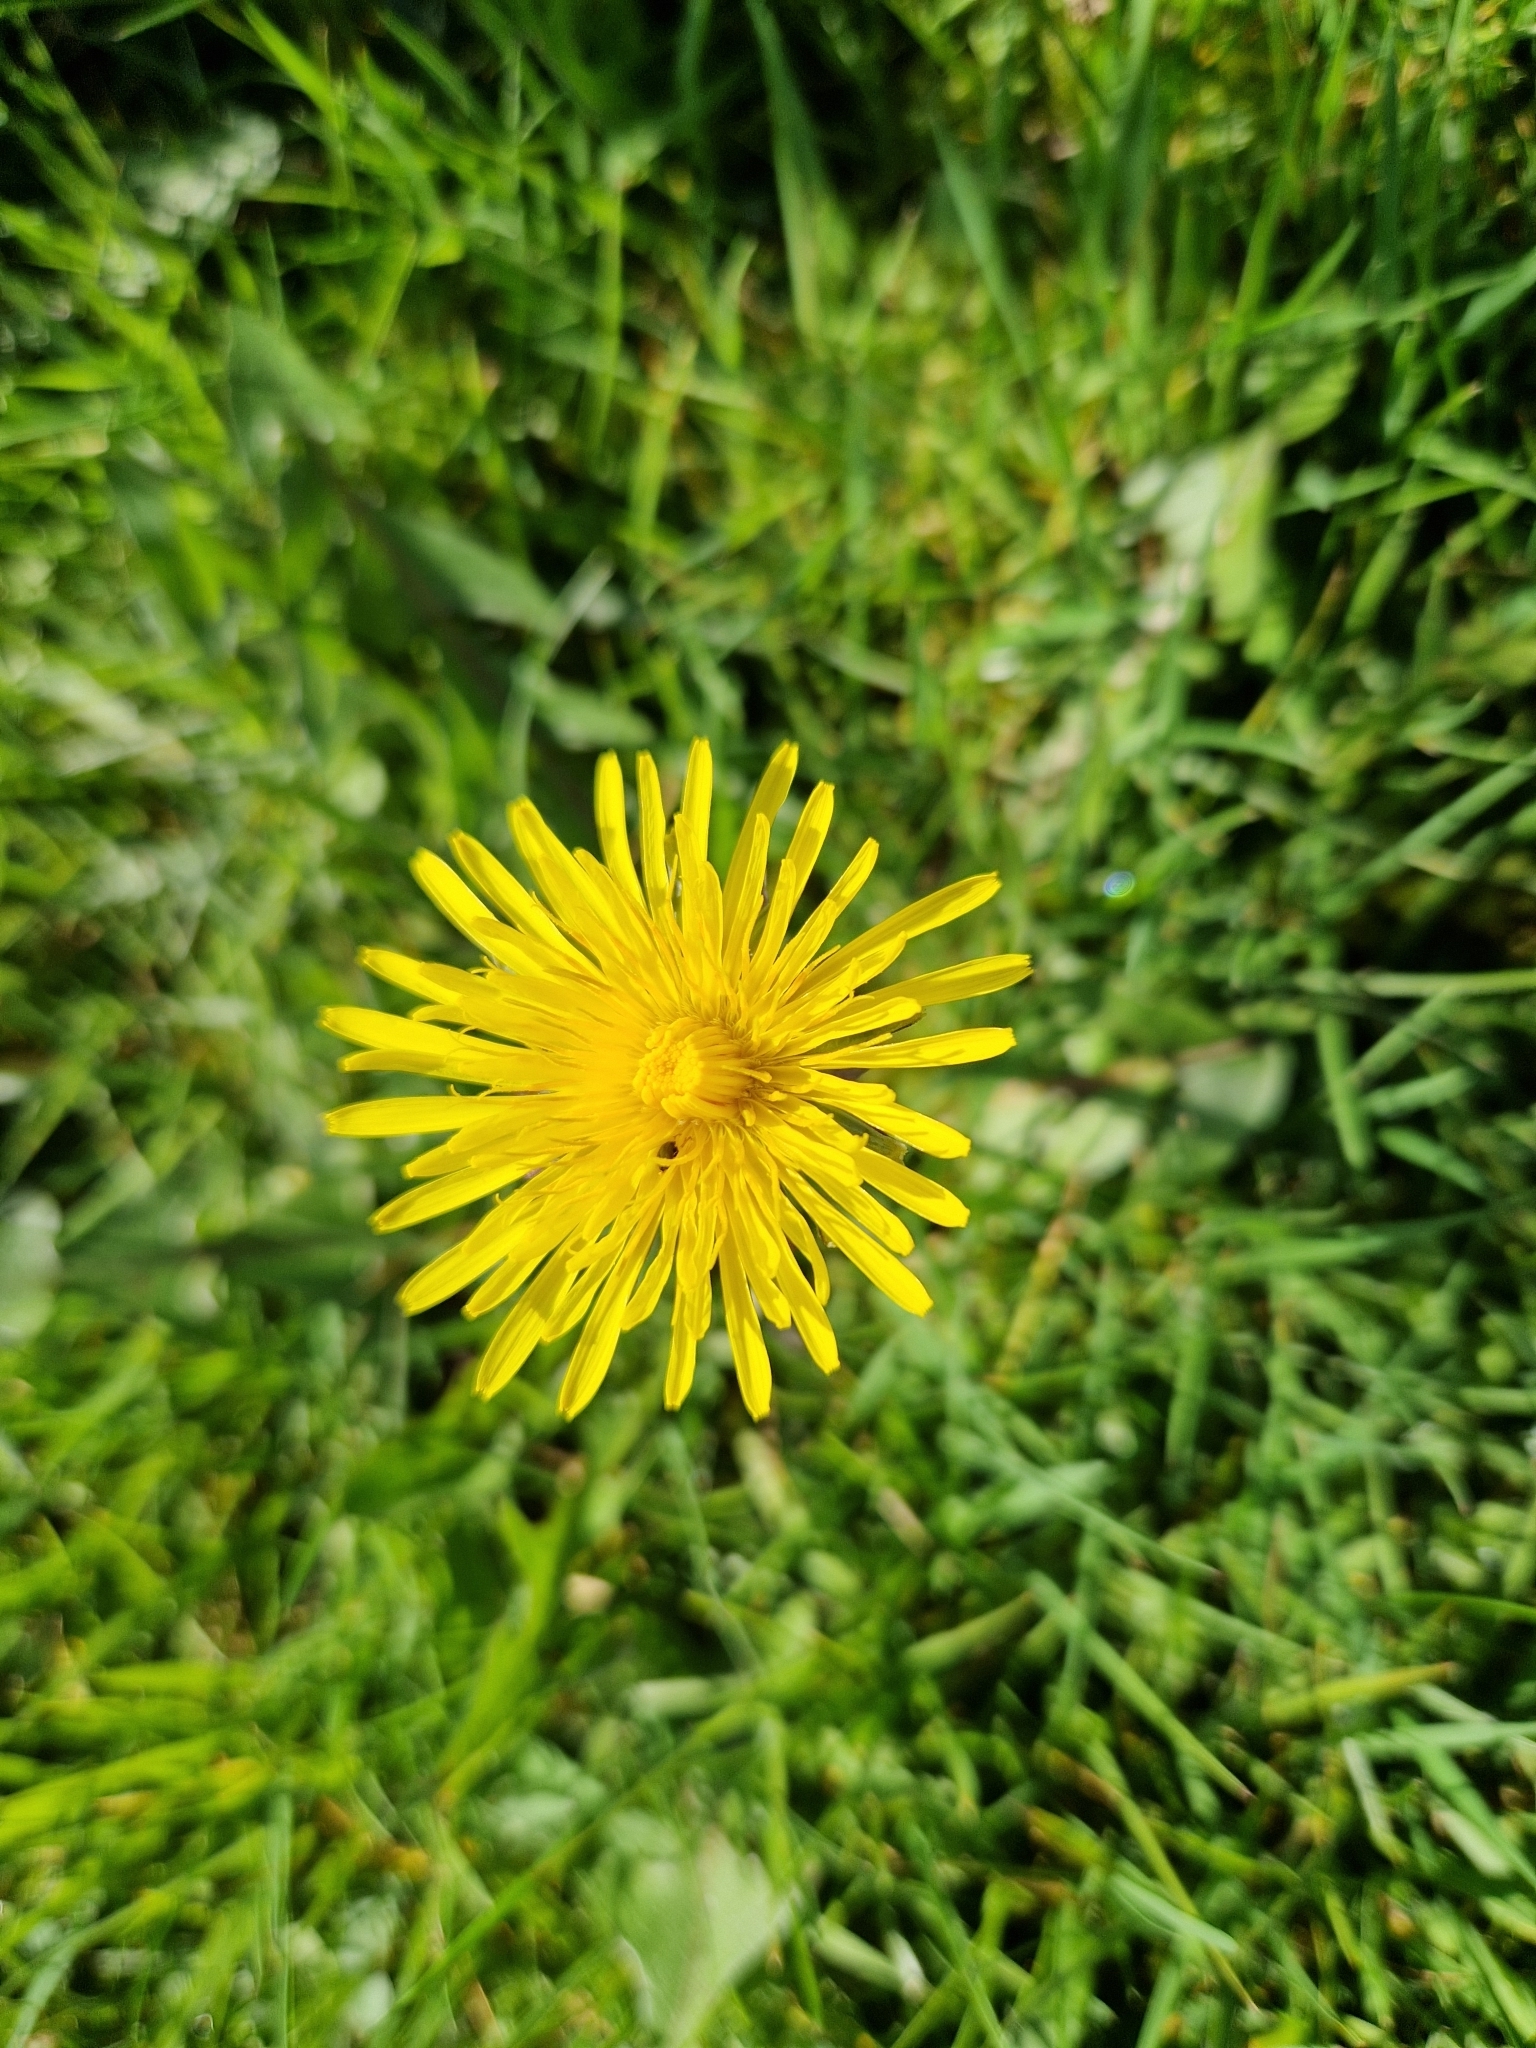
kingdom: Plantae
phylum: Tracheophyta
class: Magnoliopsida
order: Asterales
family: Asteraceae
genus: Taraxacum
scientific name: Taraxacum officinale
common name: Common dandelion
